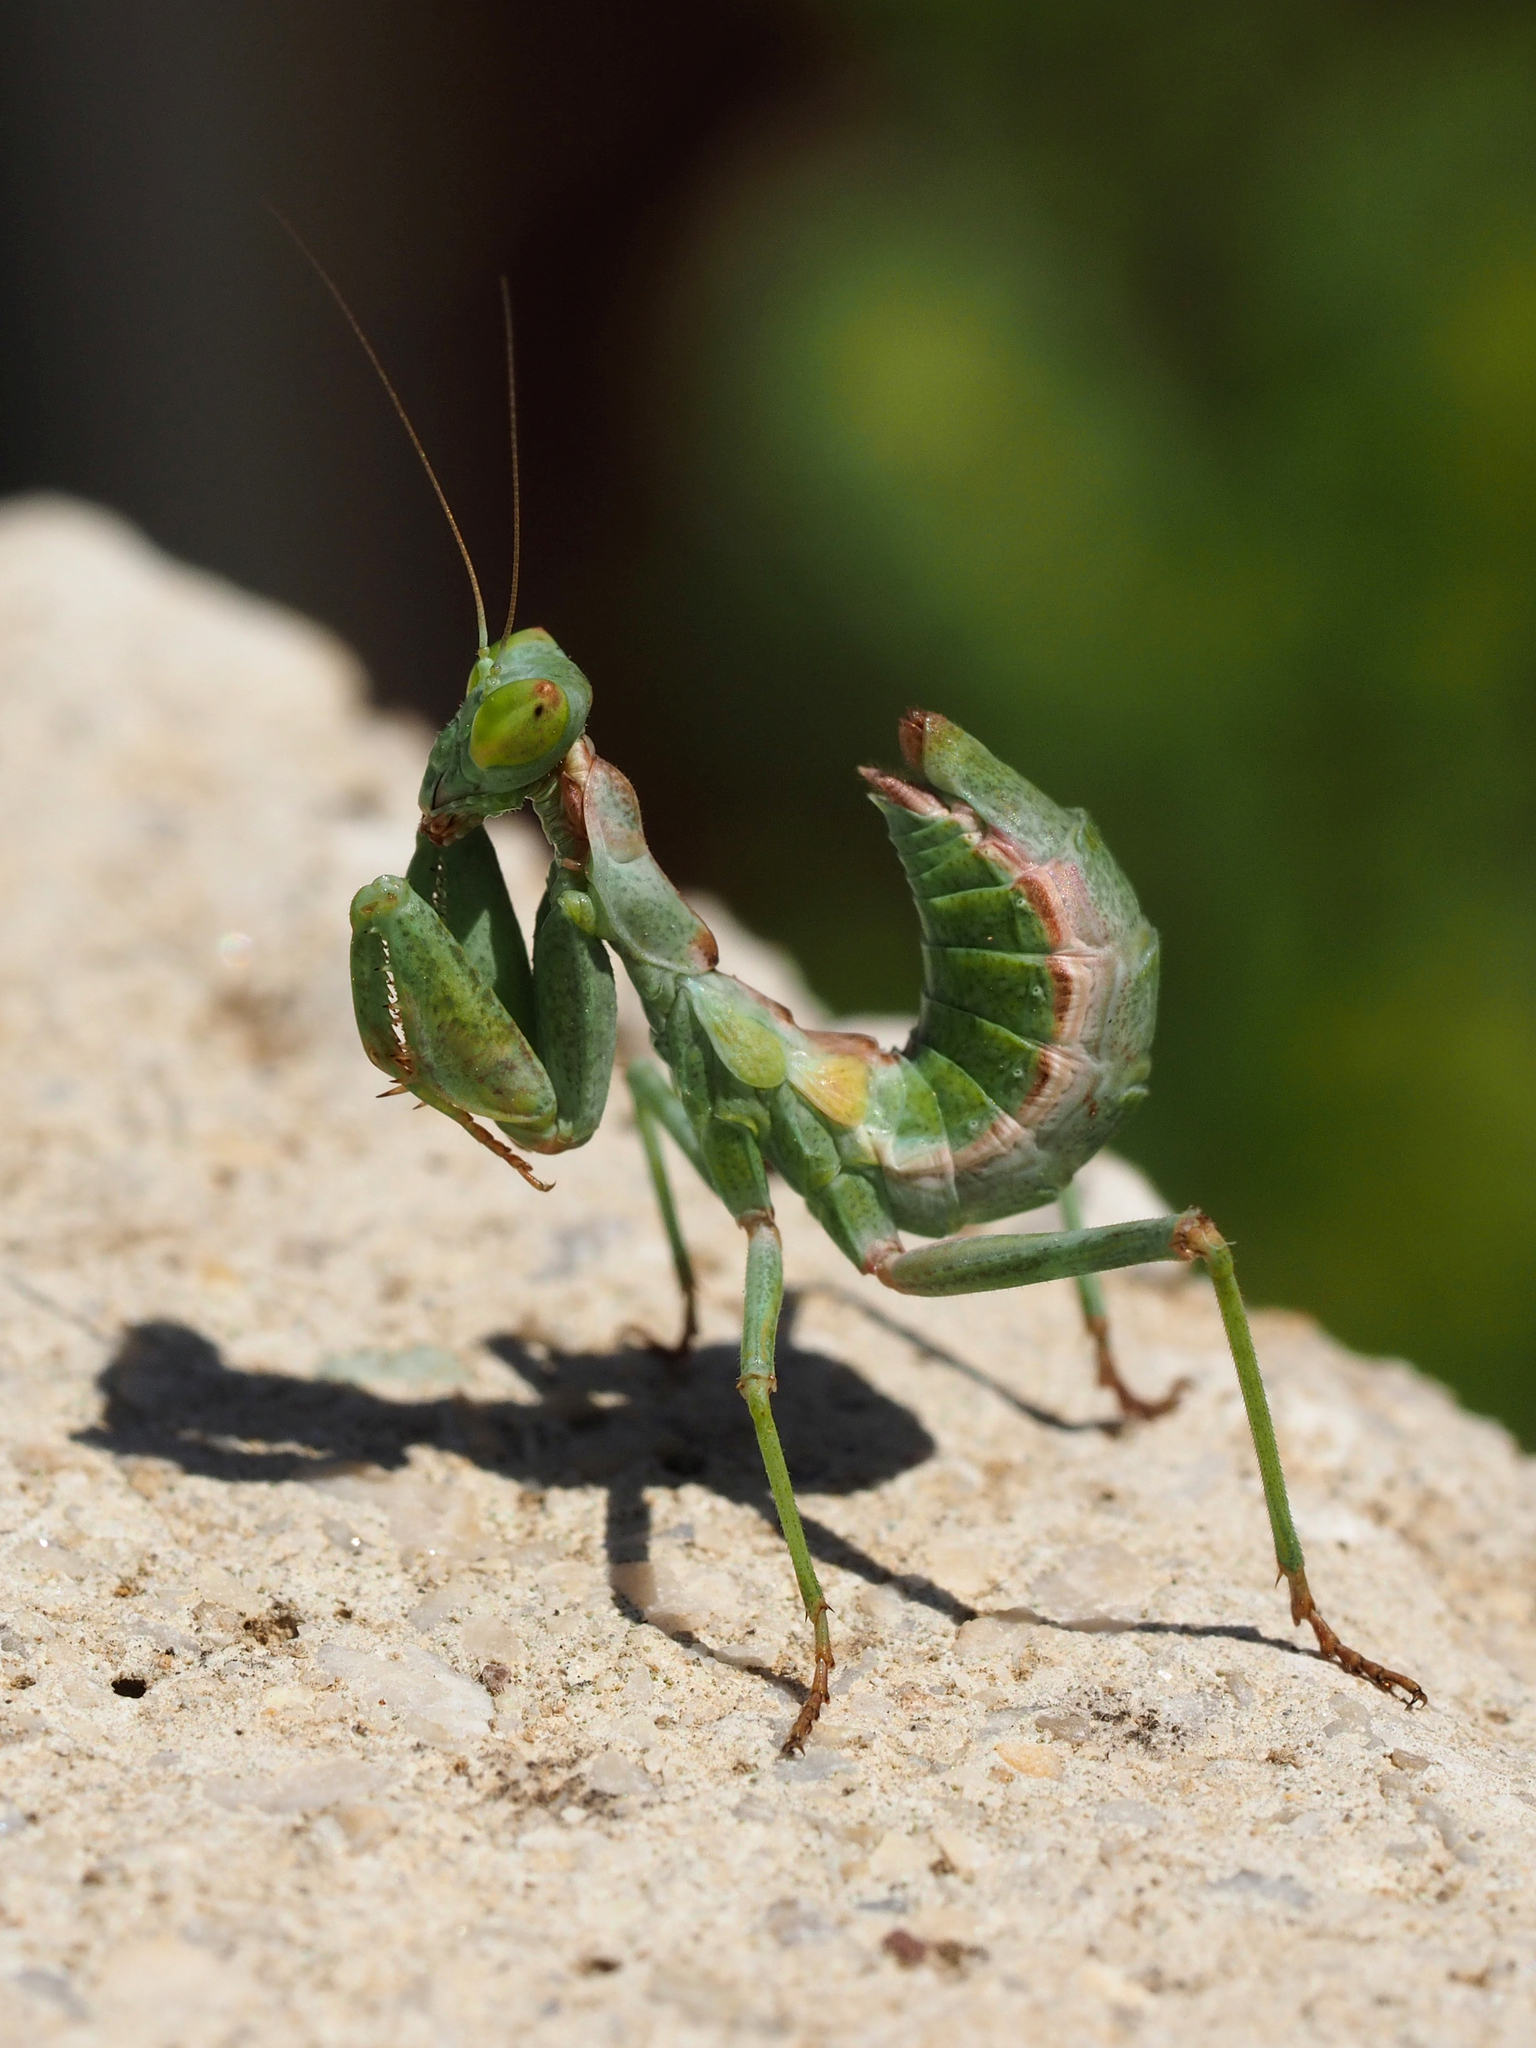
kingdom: Animalia
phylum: Arthropoda
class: Insecta
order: Mantodea
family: Amelidae
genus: Ameles
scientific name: Ameles spallanzania
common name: European dwarf mantis
